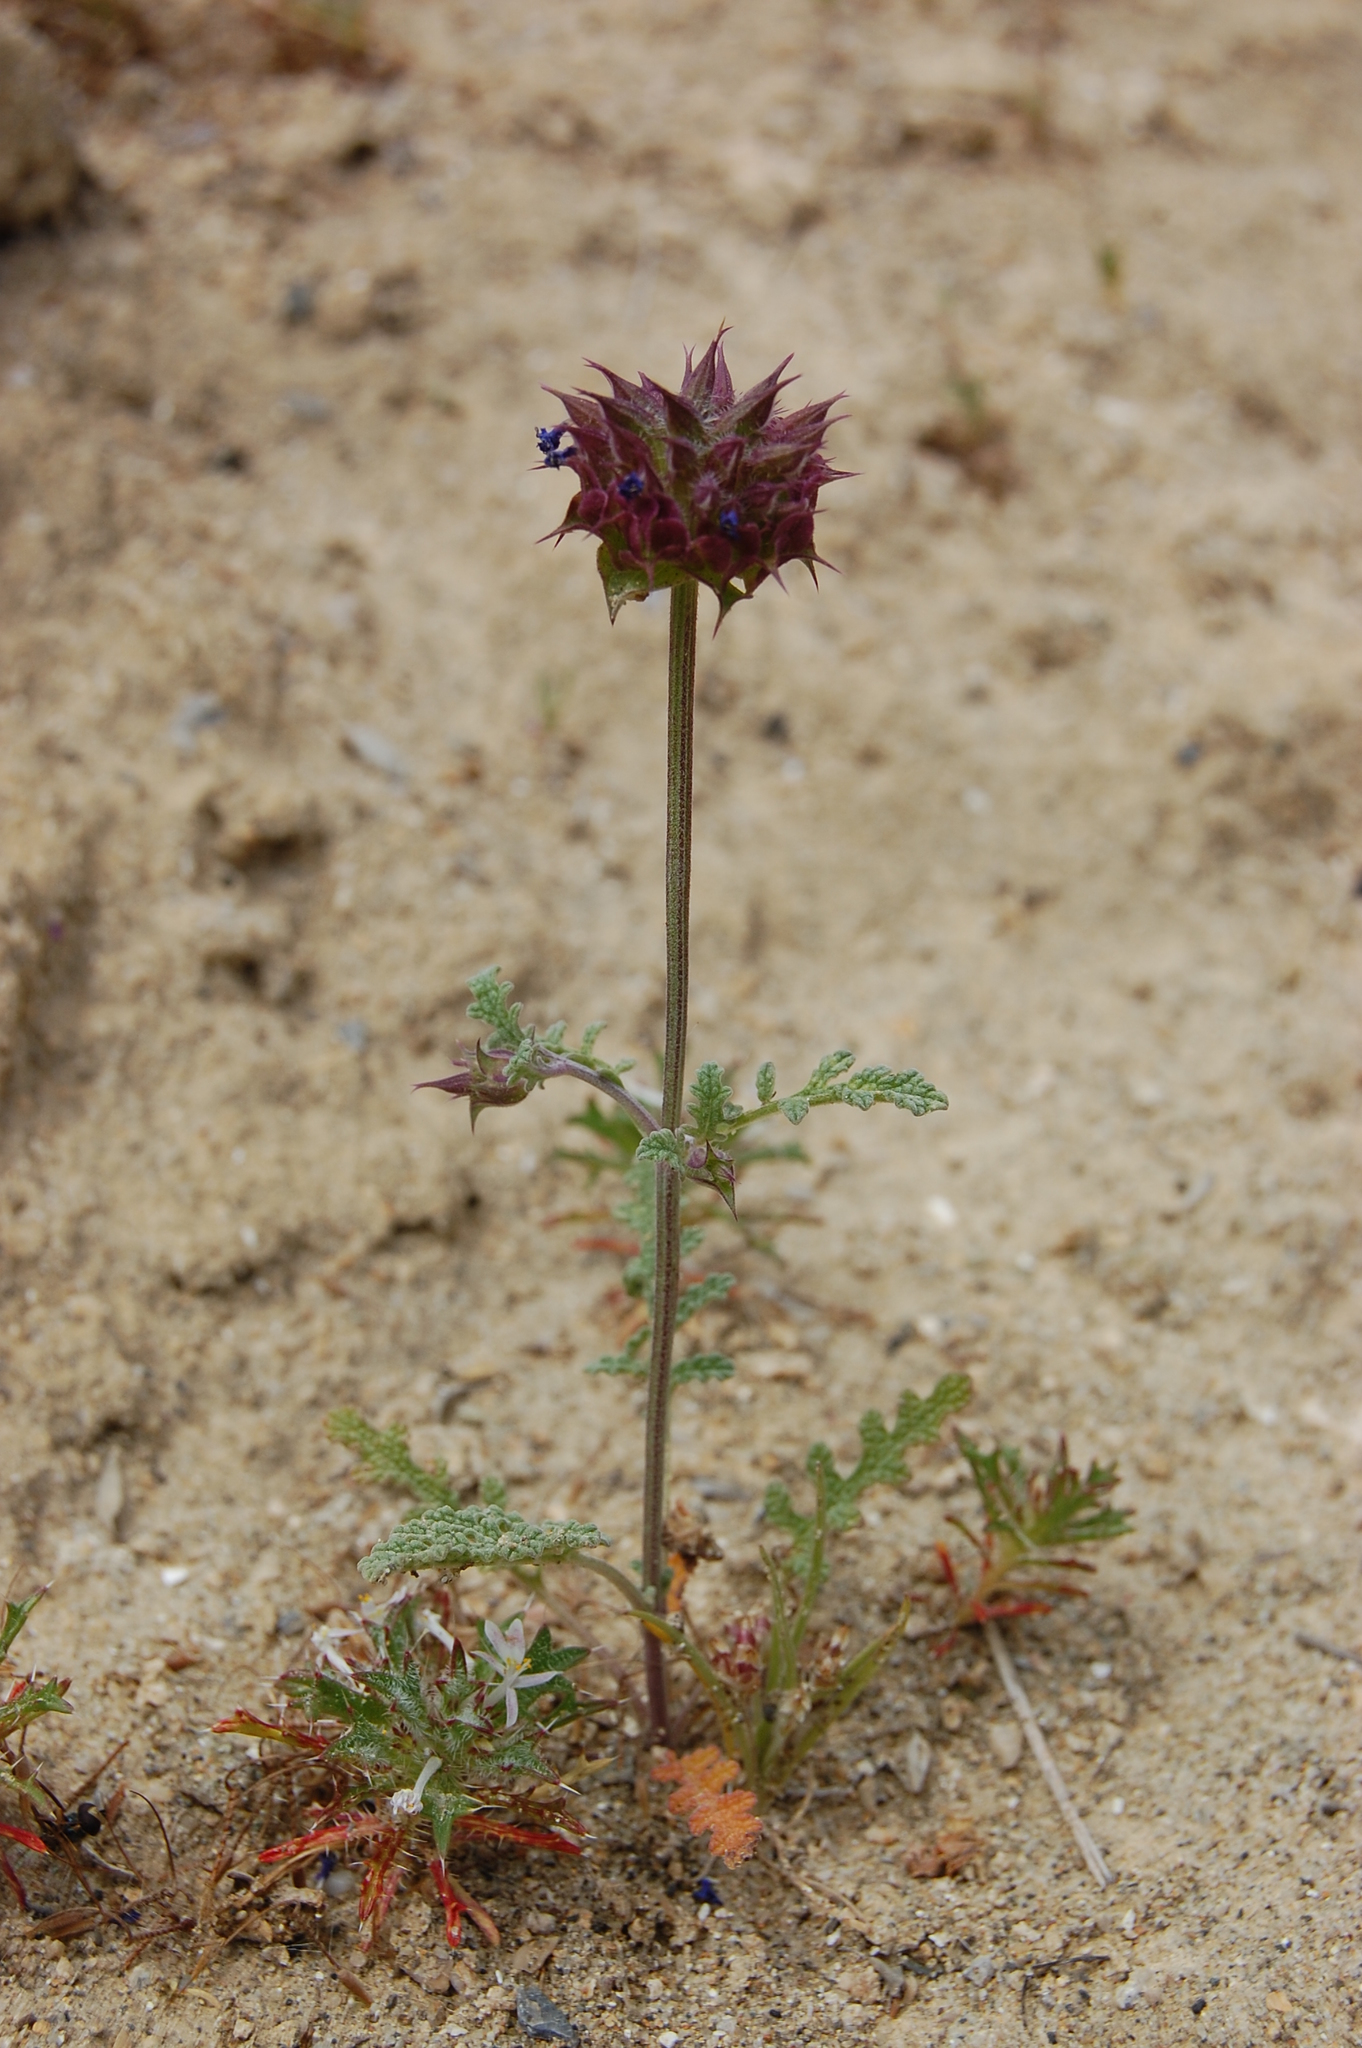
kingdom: Plantae
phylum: Tracheophyta
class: Magnoliopsida
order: Lamiales
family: Lamiaceae
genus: Salvia
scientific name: Salvia columbariae
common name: Chia
